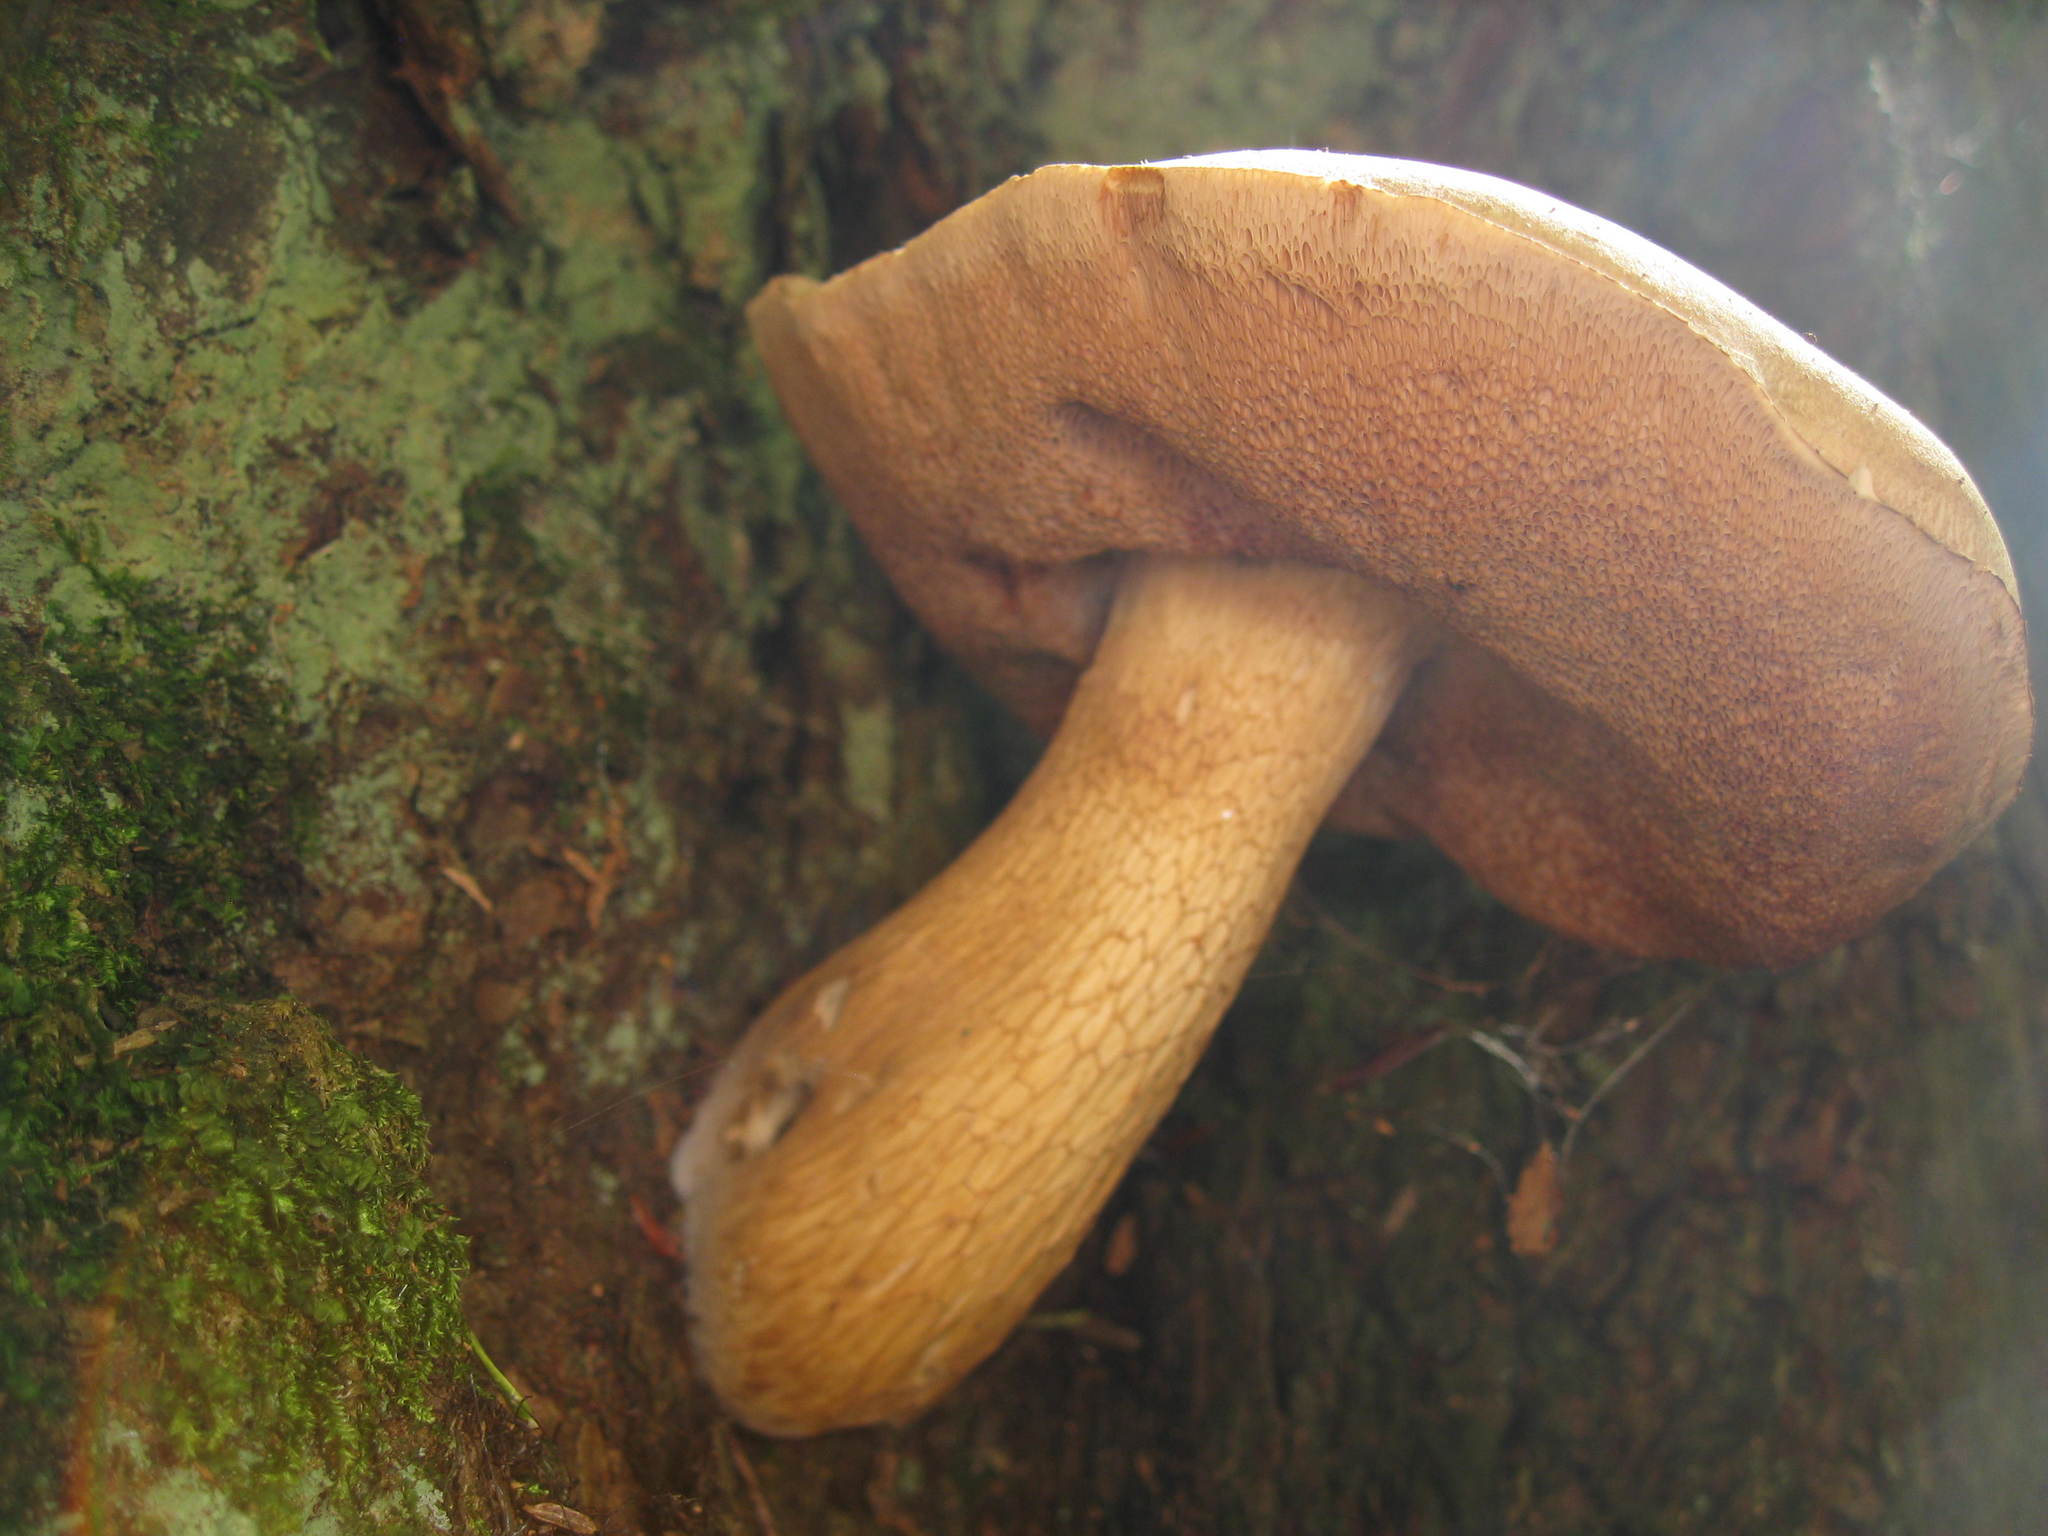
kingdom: Fungi
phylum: Basidiomycota
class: Agaricomycetes
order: Boletales
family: Boletaceae
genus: Tylopilus
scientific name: Tylopilus felleus
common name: Bitter bolete
